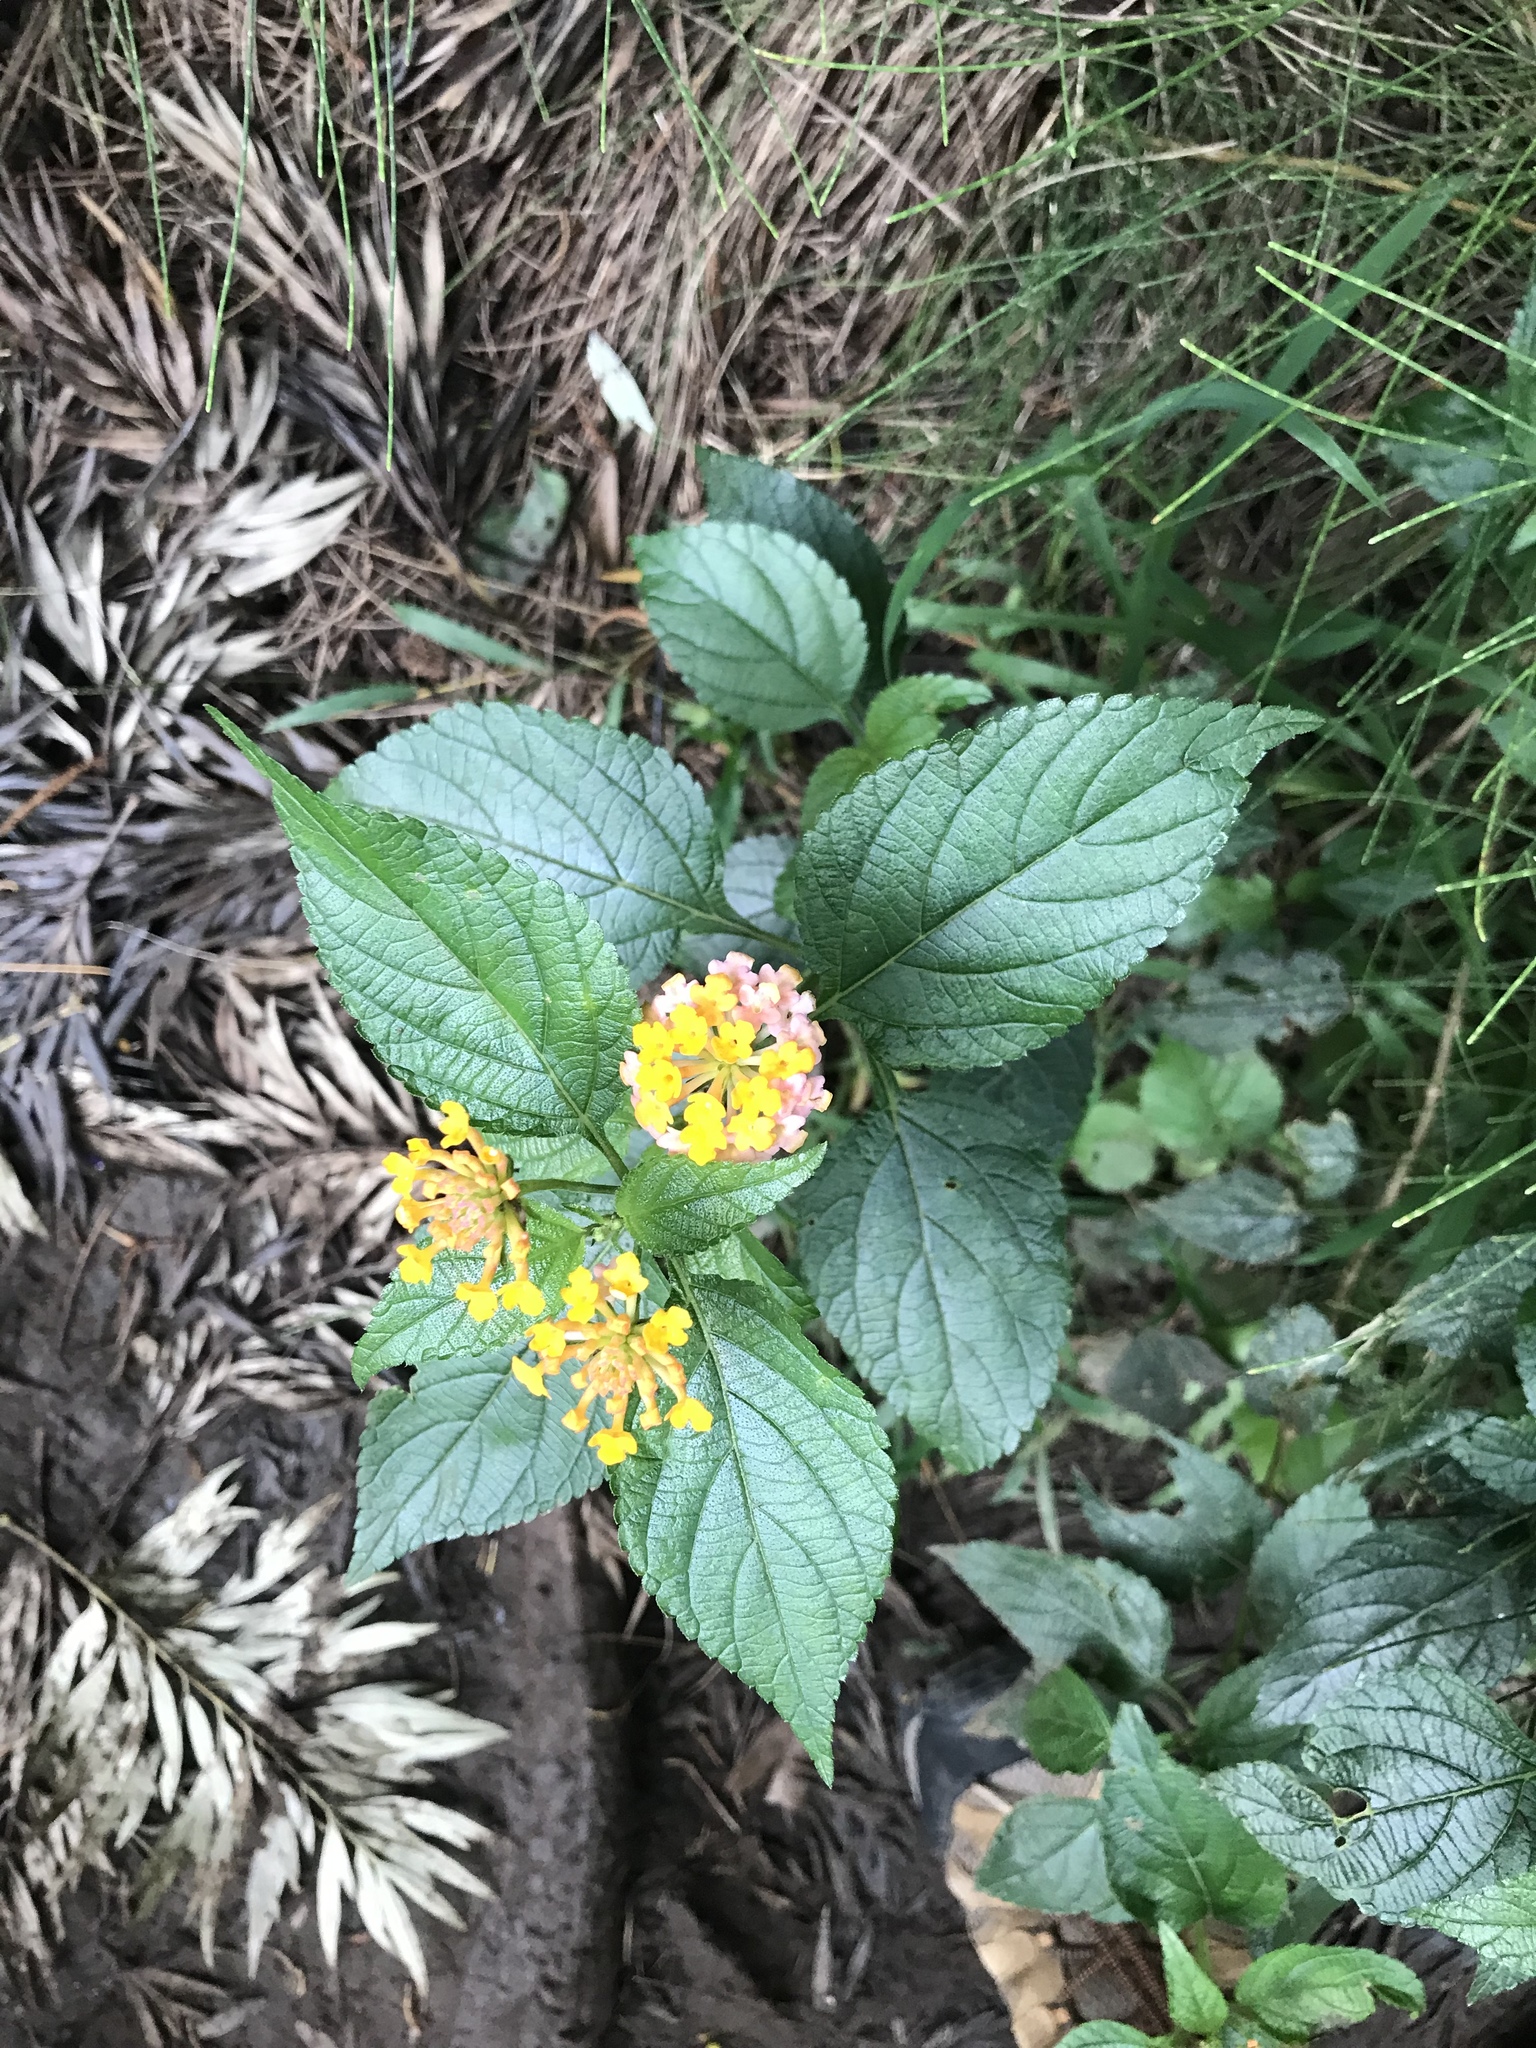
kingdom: Plantae
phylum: Tracheophyta
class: Magnoliopsida
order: Lamiales
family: Verbenaceae
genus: Lantana
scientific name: Lantana camara
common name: Lantana
